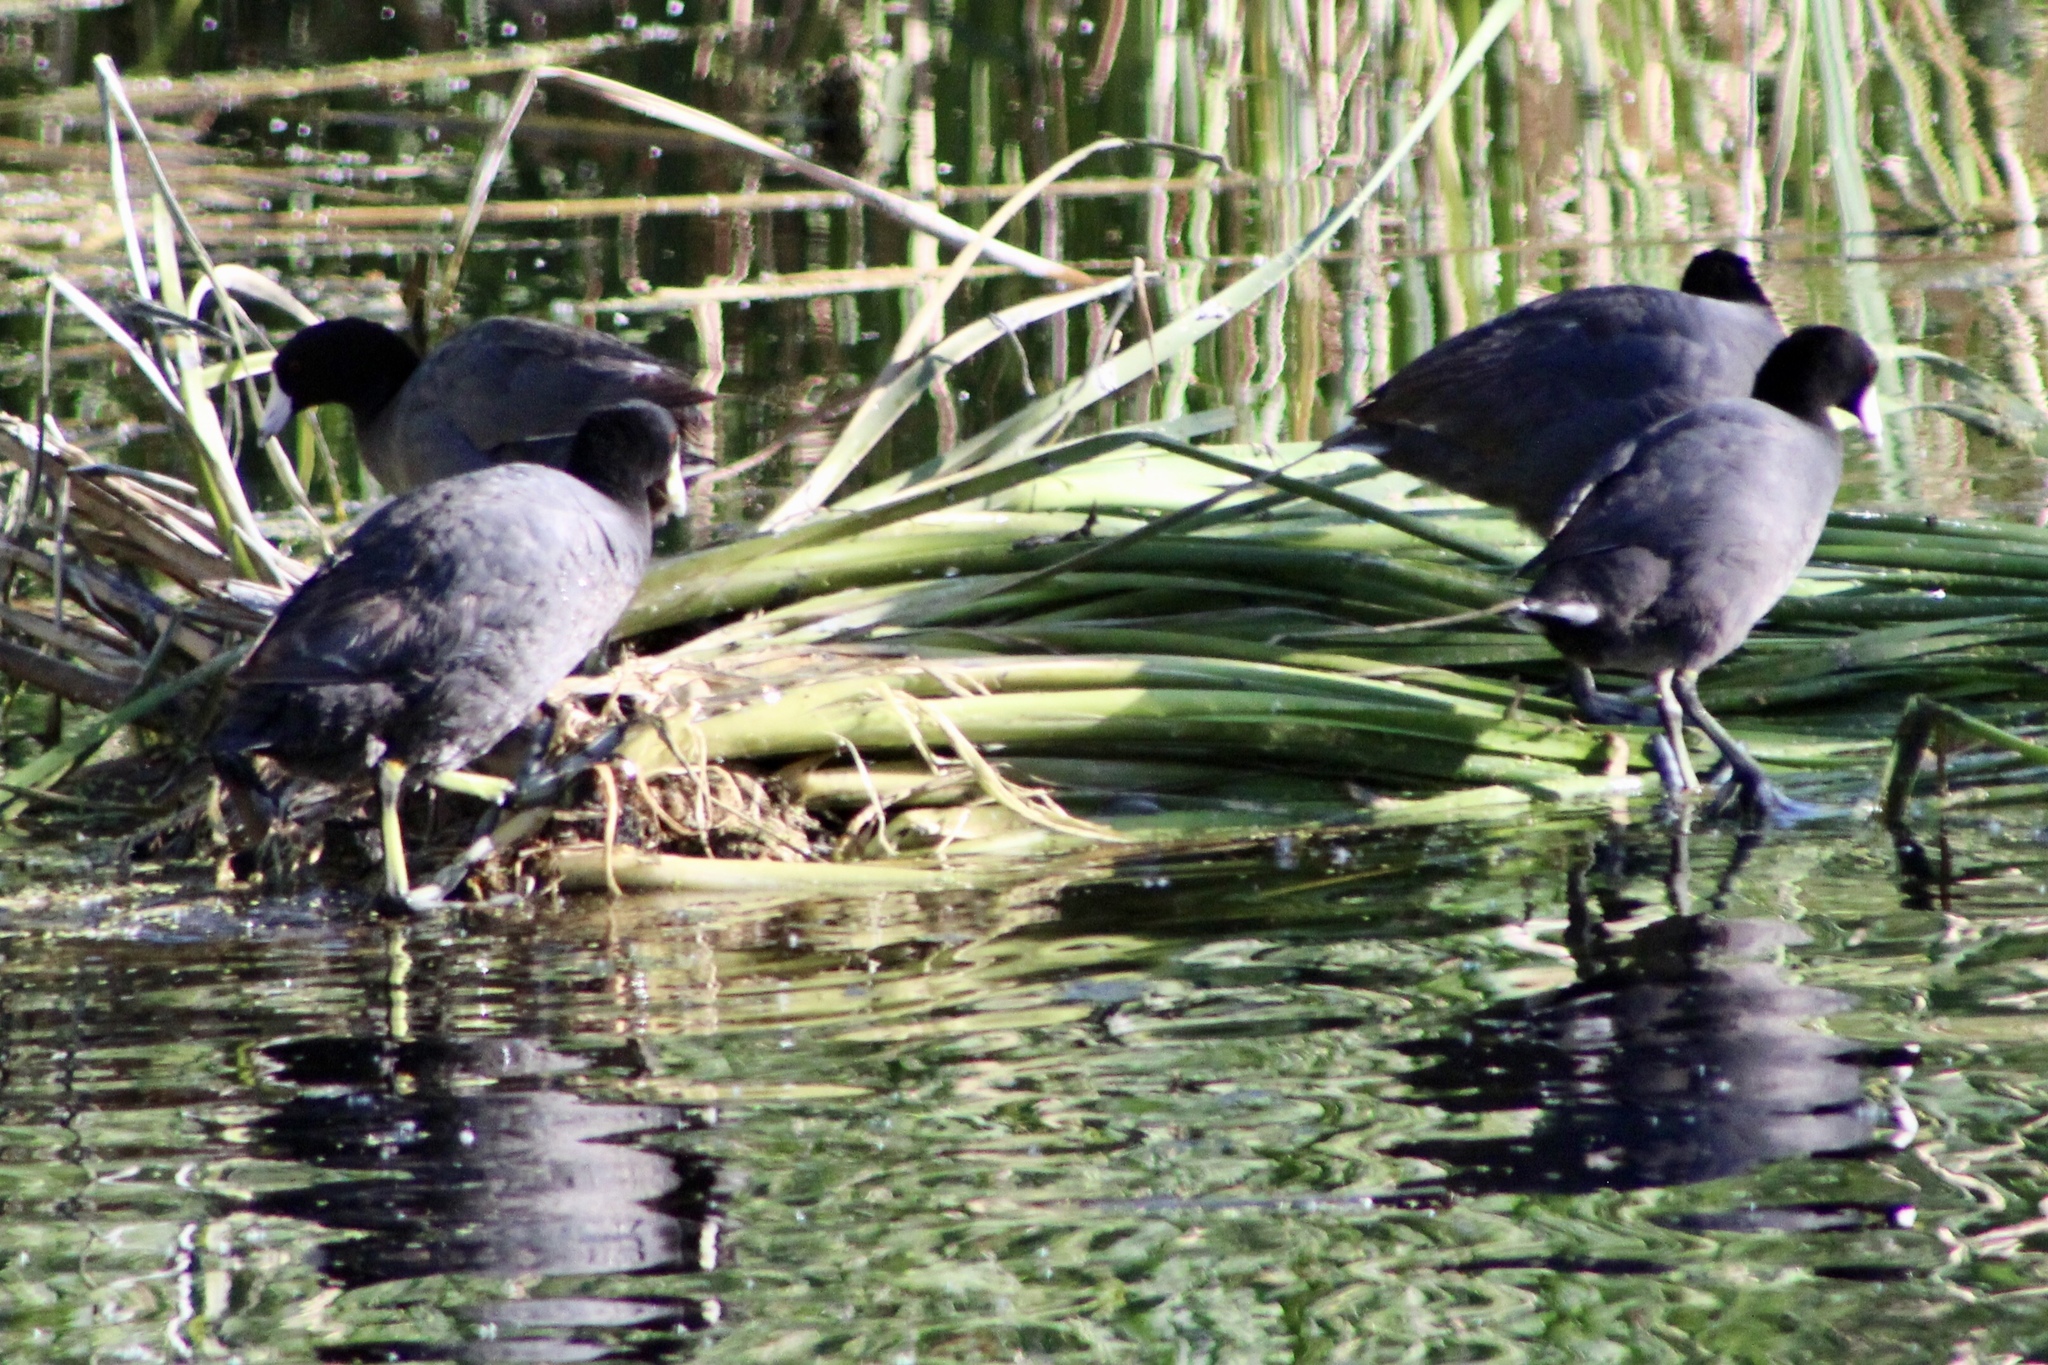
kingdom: Animalia
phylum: Chordata
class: Aves
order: Gruiformes
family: Rallidae
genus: Fulica
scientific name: Fulica americana
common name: American coot
